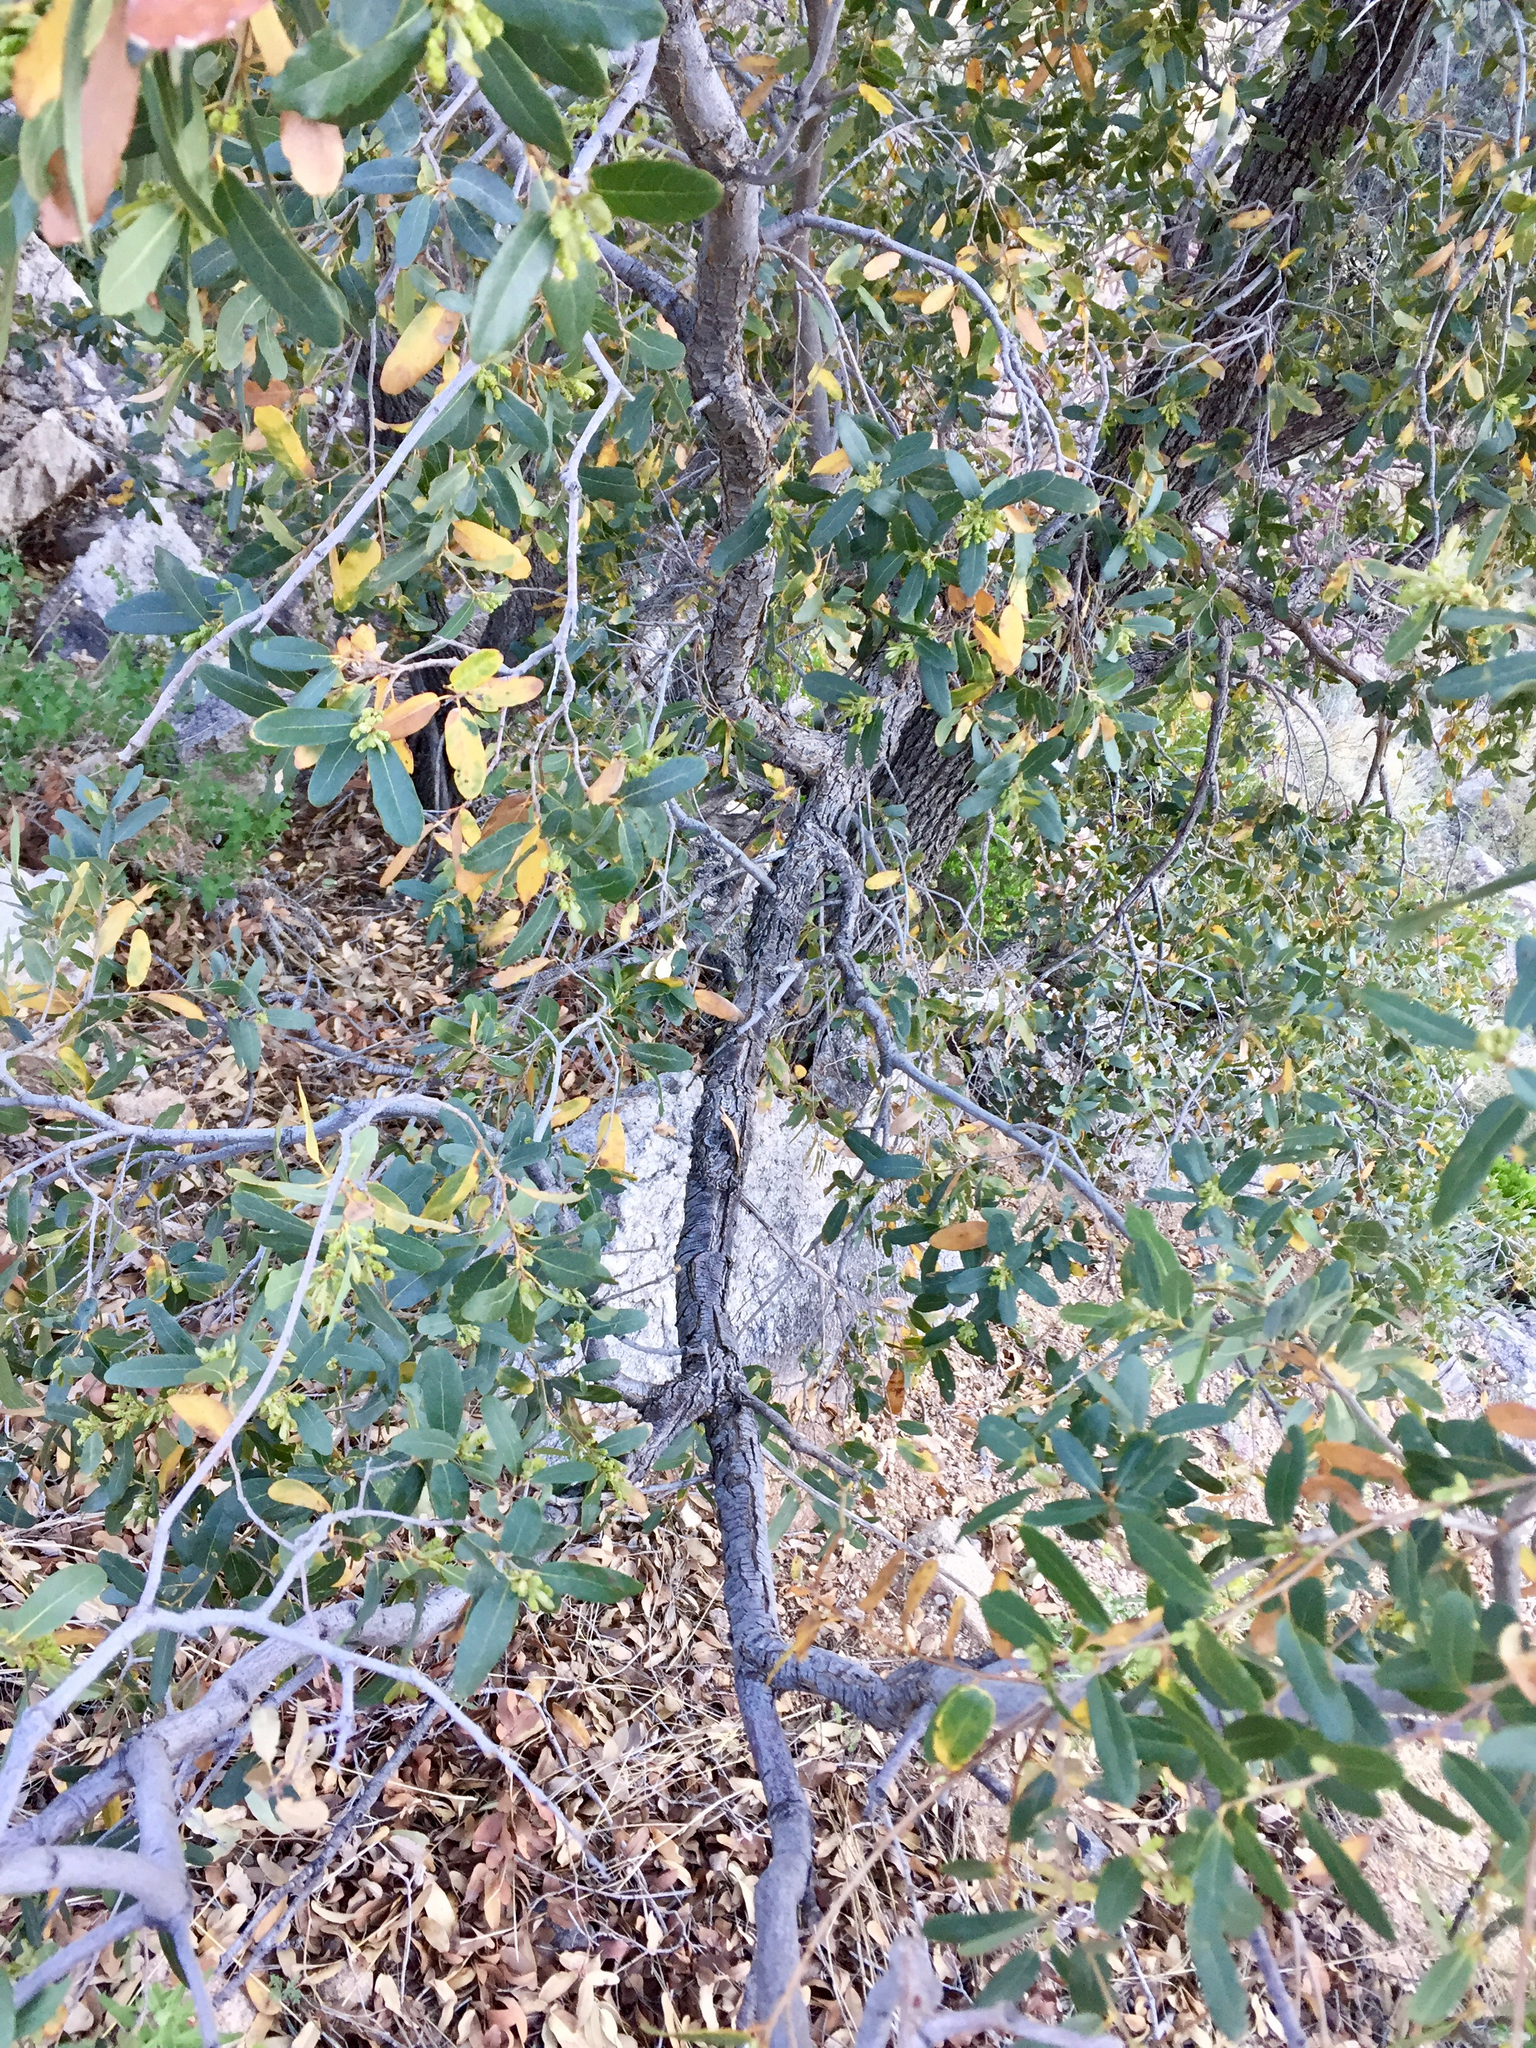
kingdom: Plantae
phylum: Tracheophyta
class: Magnoliopsida
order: Fagales
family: Fagaceae
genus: Quercus
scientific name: Quercus oblongifolia
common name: Mexican blue oak
